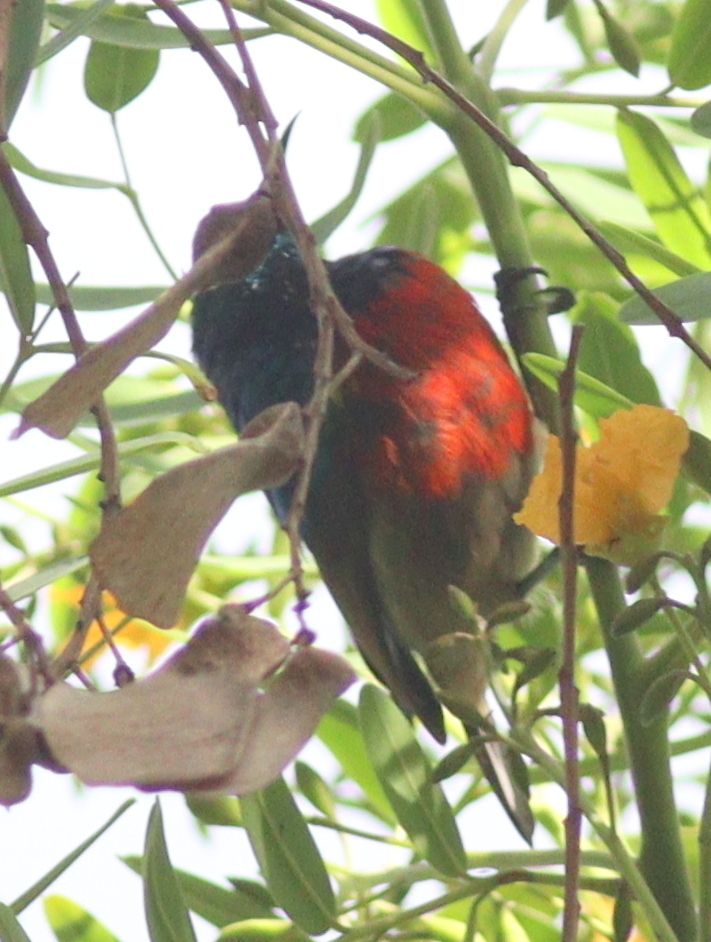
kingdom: Animalia
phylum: Chordata
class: Aves
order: Passeriformes
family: Nectariniidae
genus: Cinnyris
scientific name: Cinnyris reichenowi
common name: Northern double-collared sunbird
